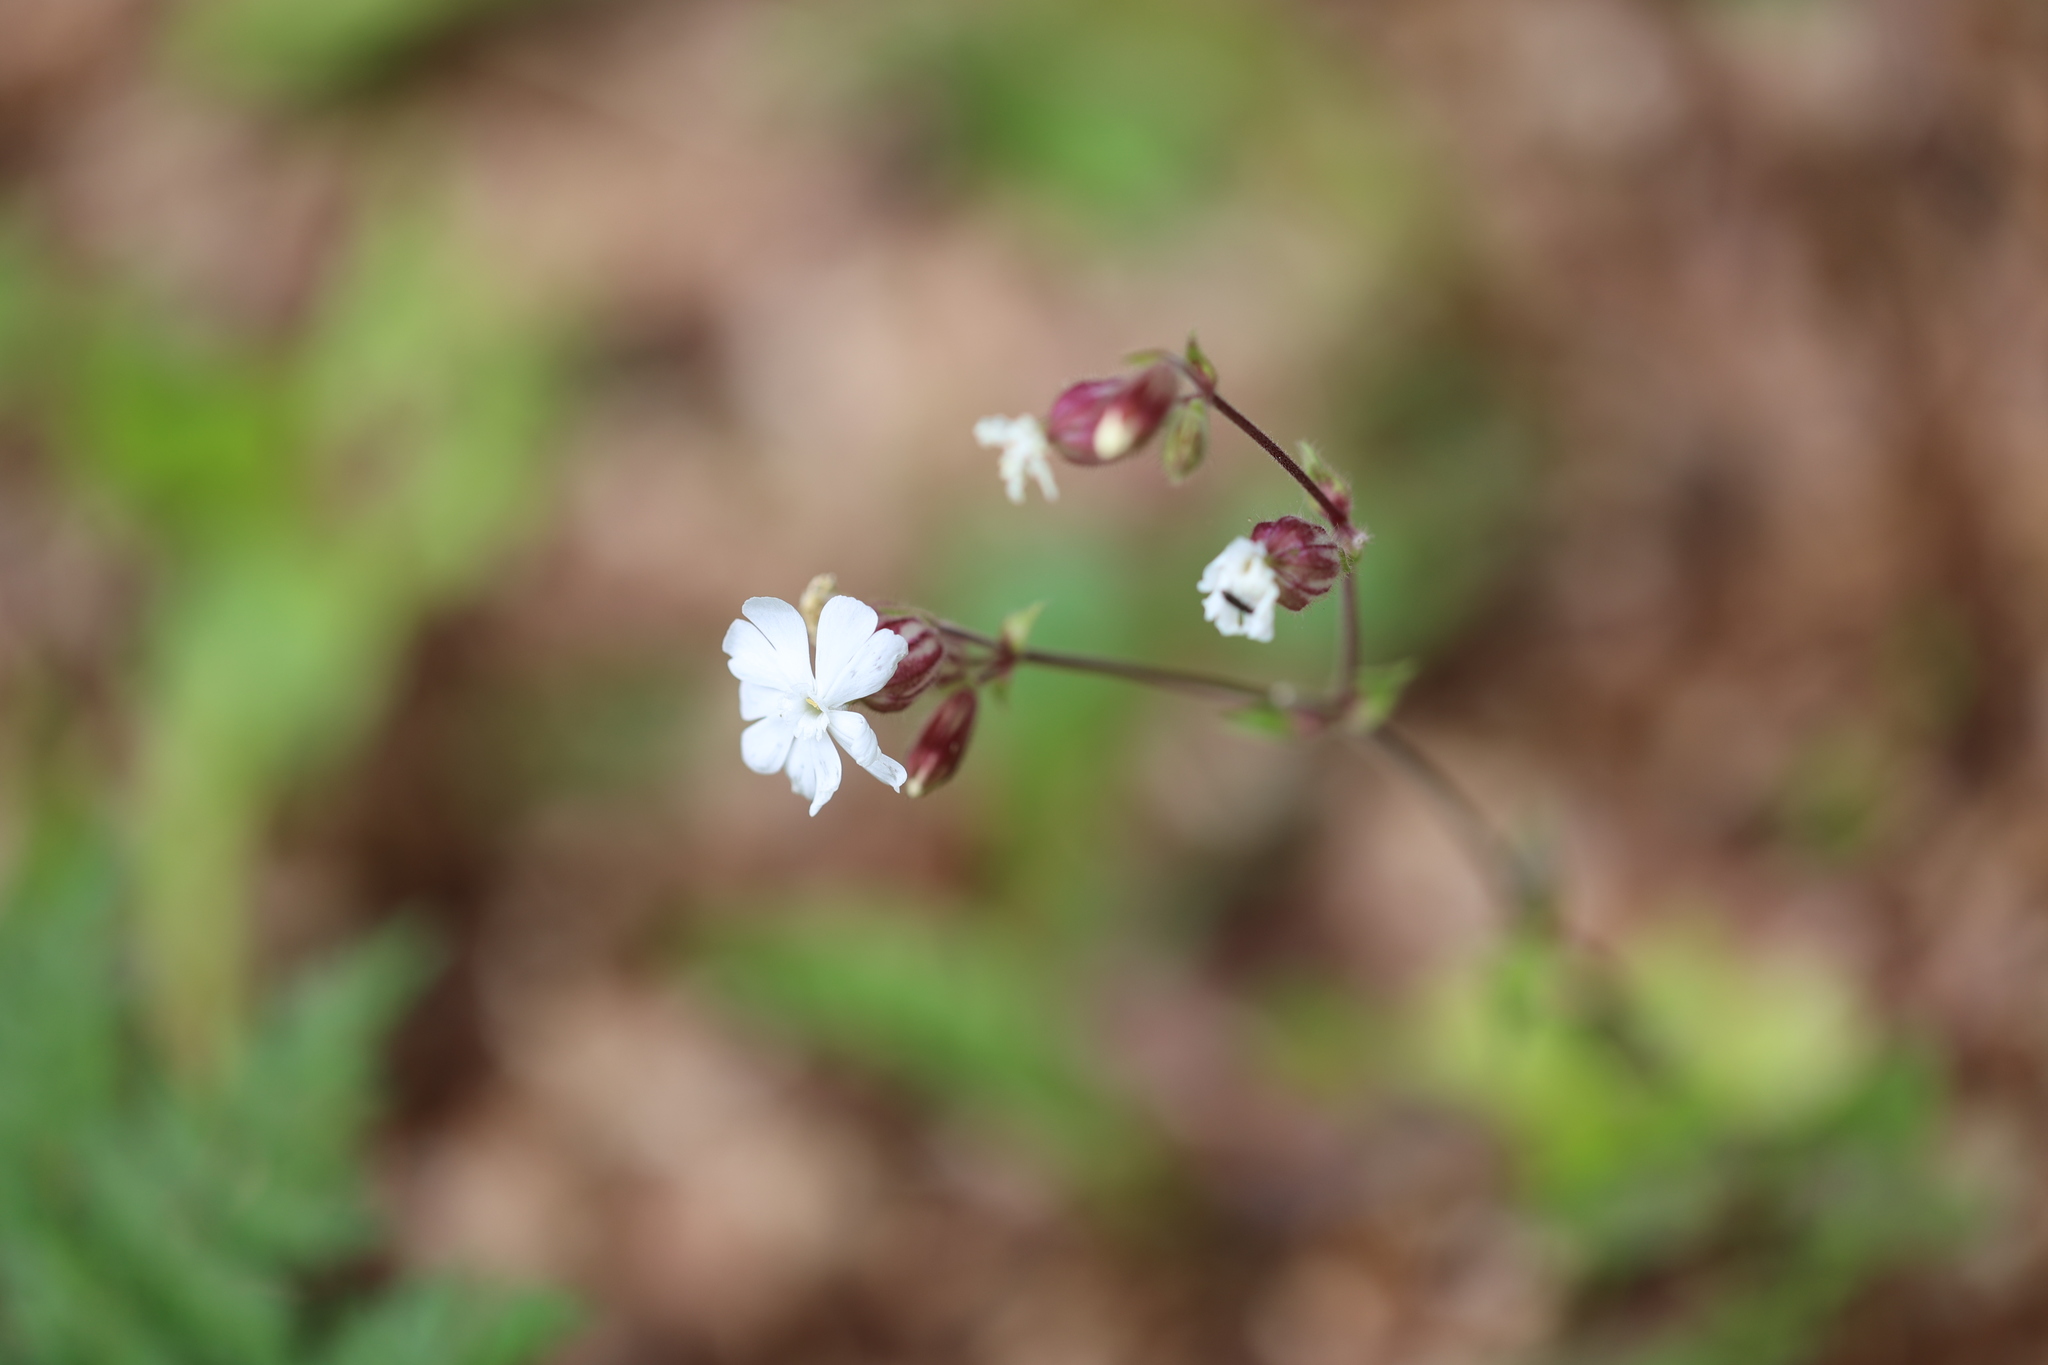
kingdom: Plantae
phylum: Tracheophyta
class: Magnoliopsida
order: Caryophyllales
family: Caryophyllaceae
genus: Silene
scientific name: Silene latifolia
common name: White campion
